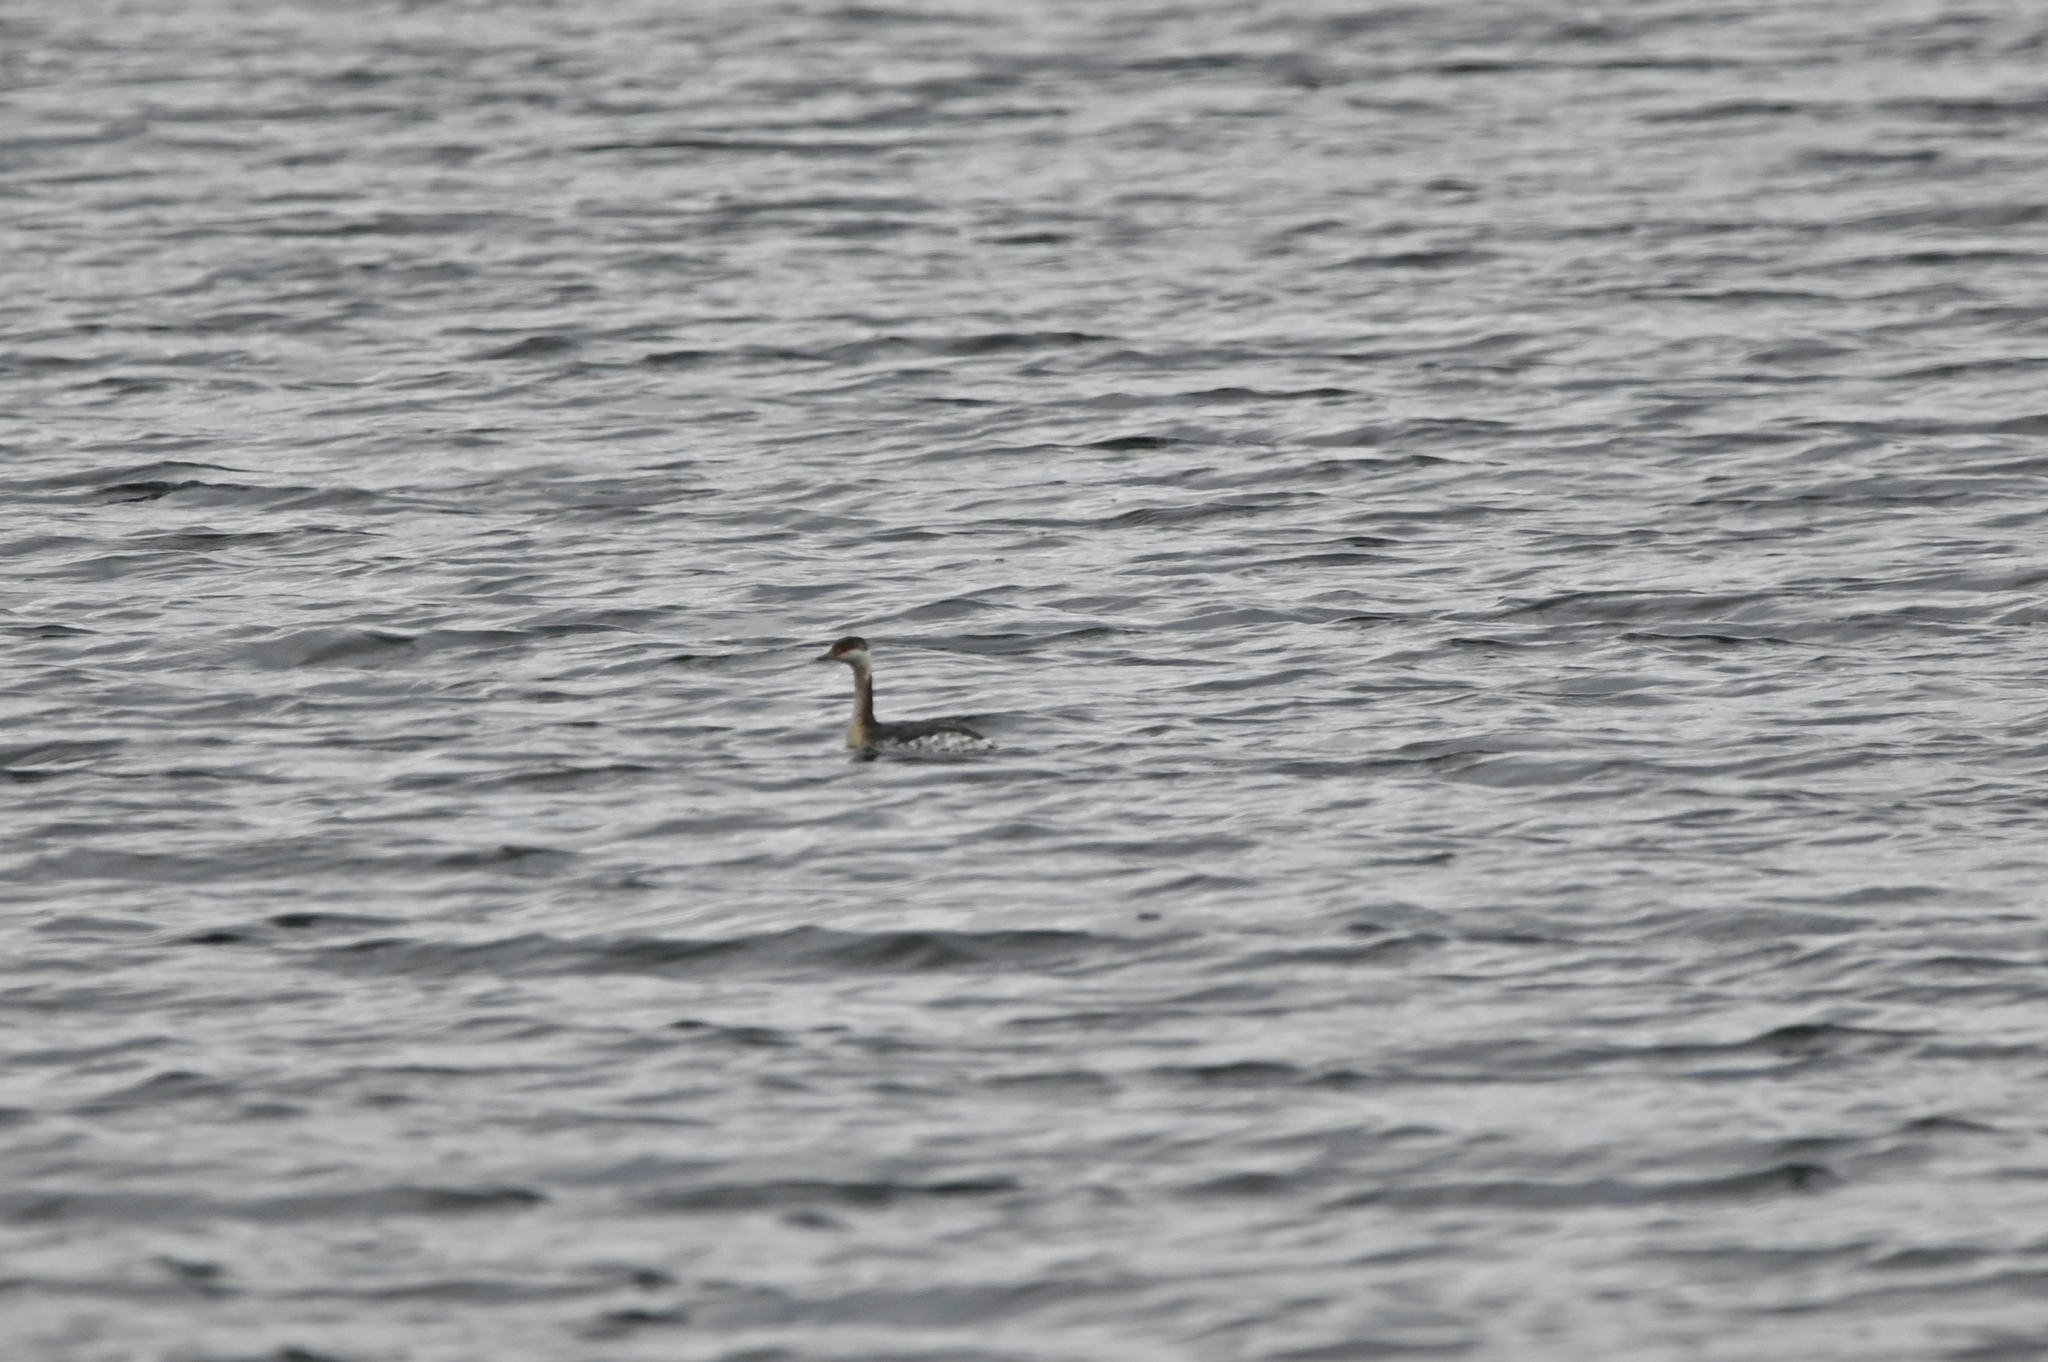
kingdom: Animalia
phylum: Chordata
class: Aves
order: Podicipediformes
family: Podicipedidae
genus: Podiceps
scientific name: Podiceps auritus
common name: Horned grebe
